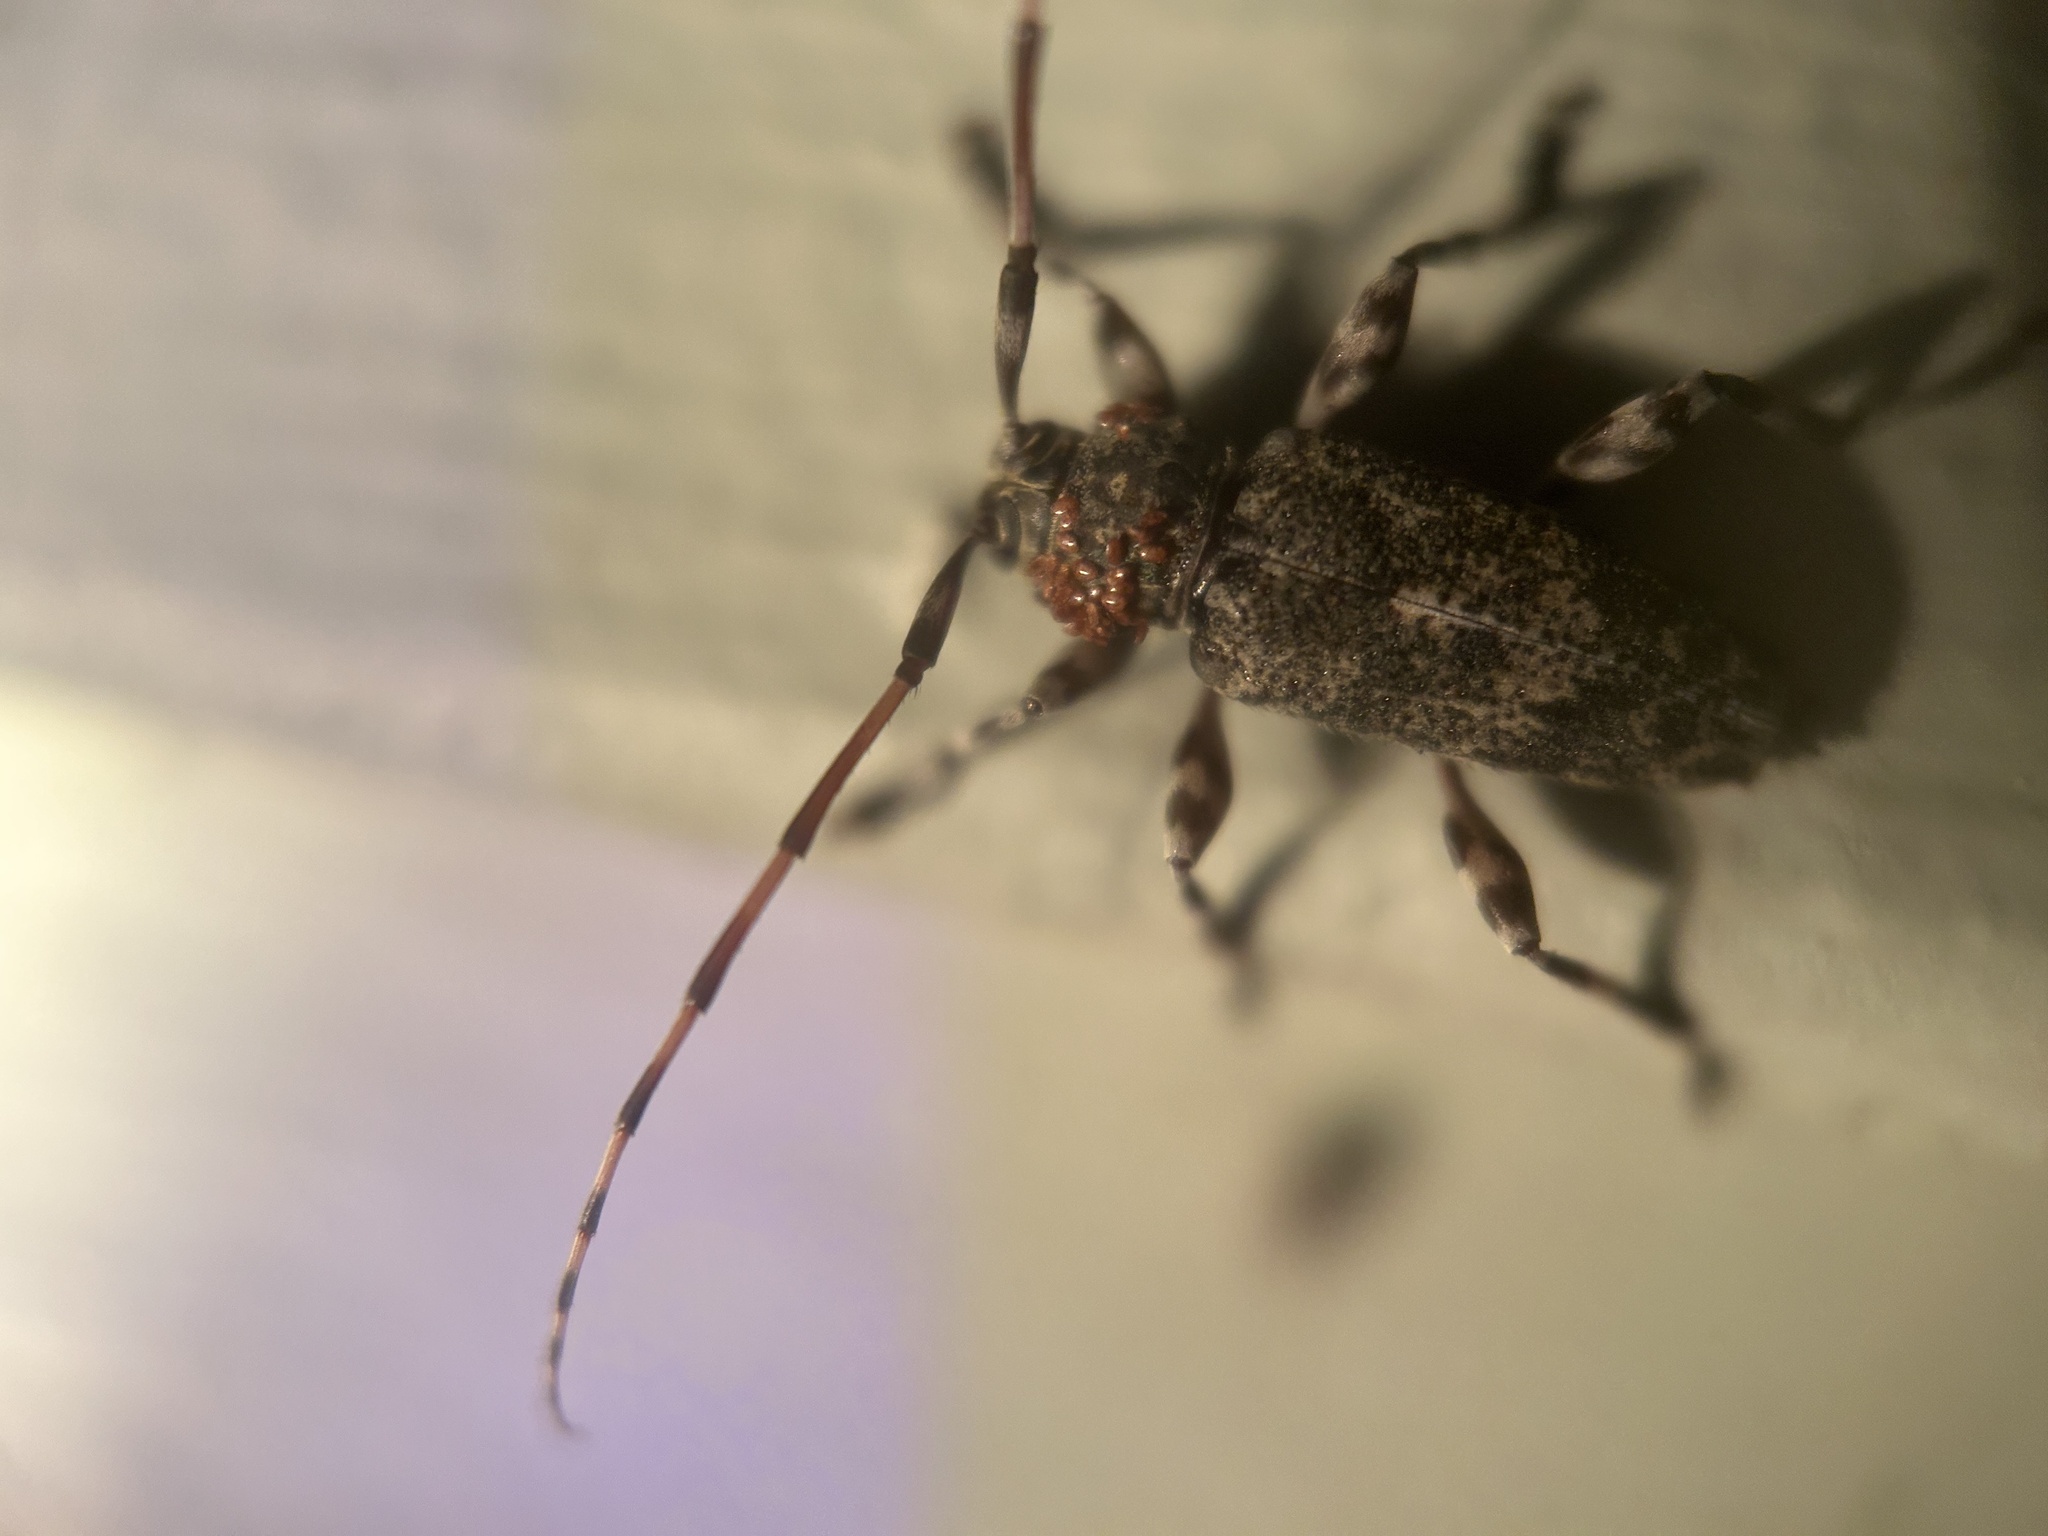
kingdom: Animalia
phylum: Arthropoda
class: Insecta
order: Coleoptera
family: Cerambycidae
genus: Graphisurus
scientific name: Graphisurus fasciatus
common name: Banded graphisurus
